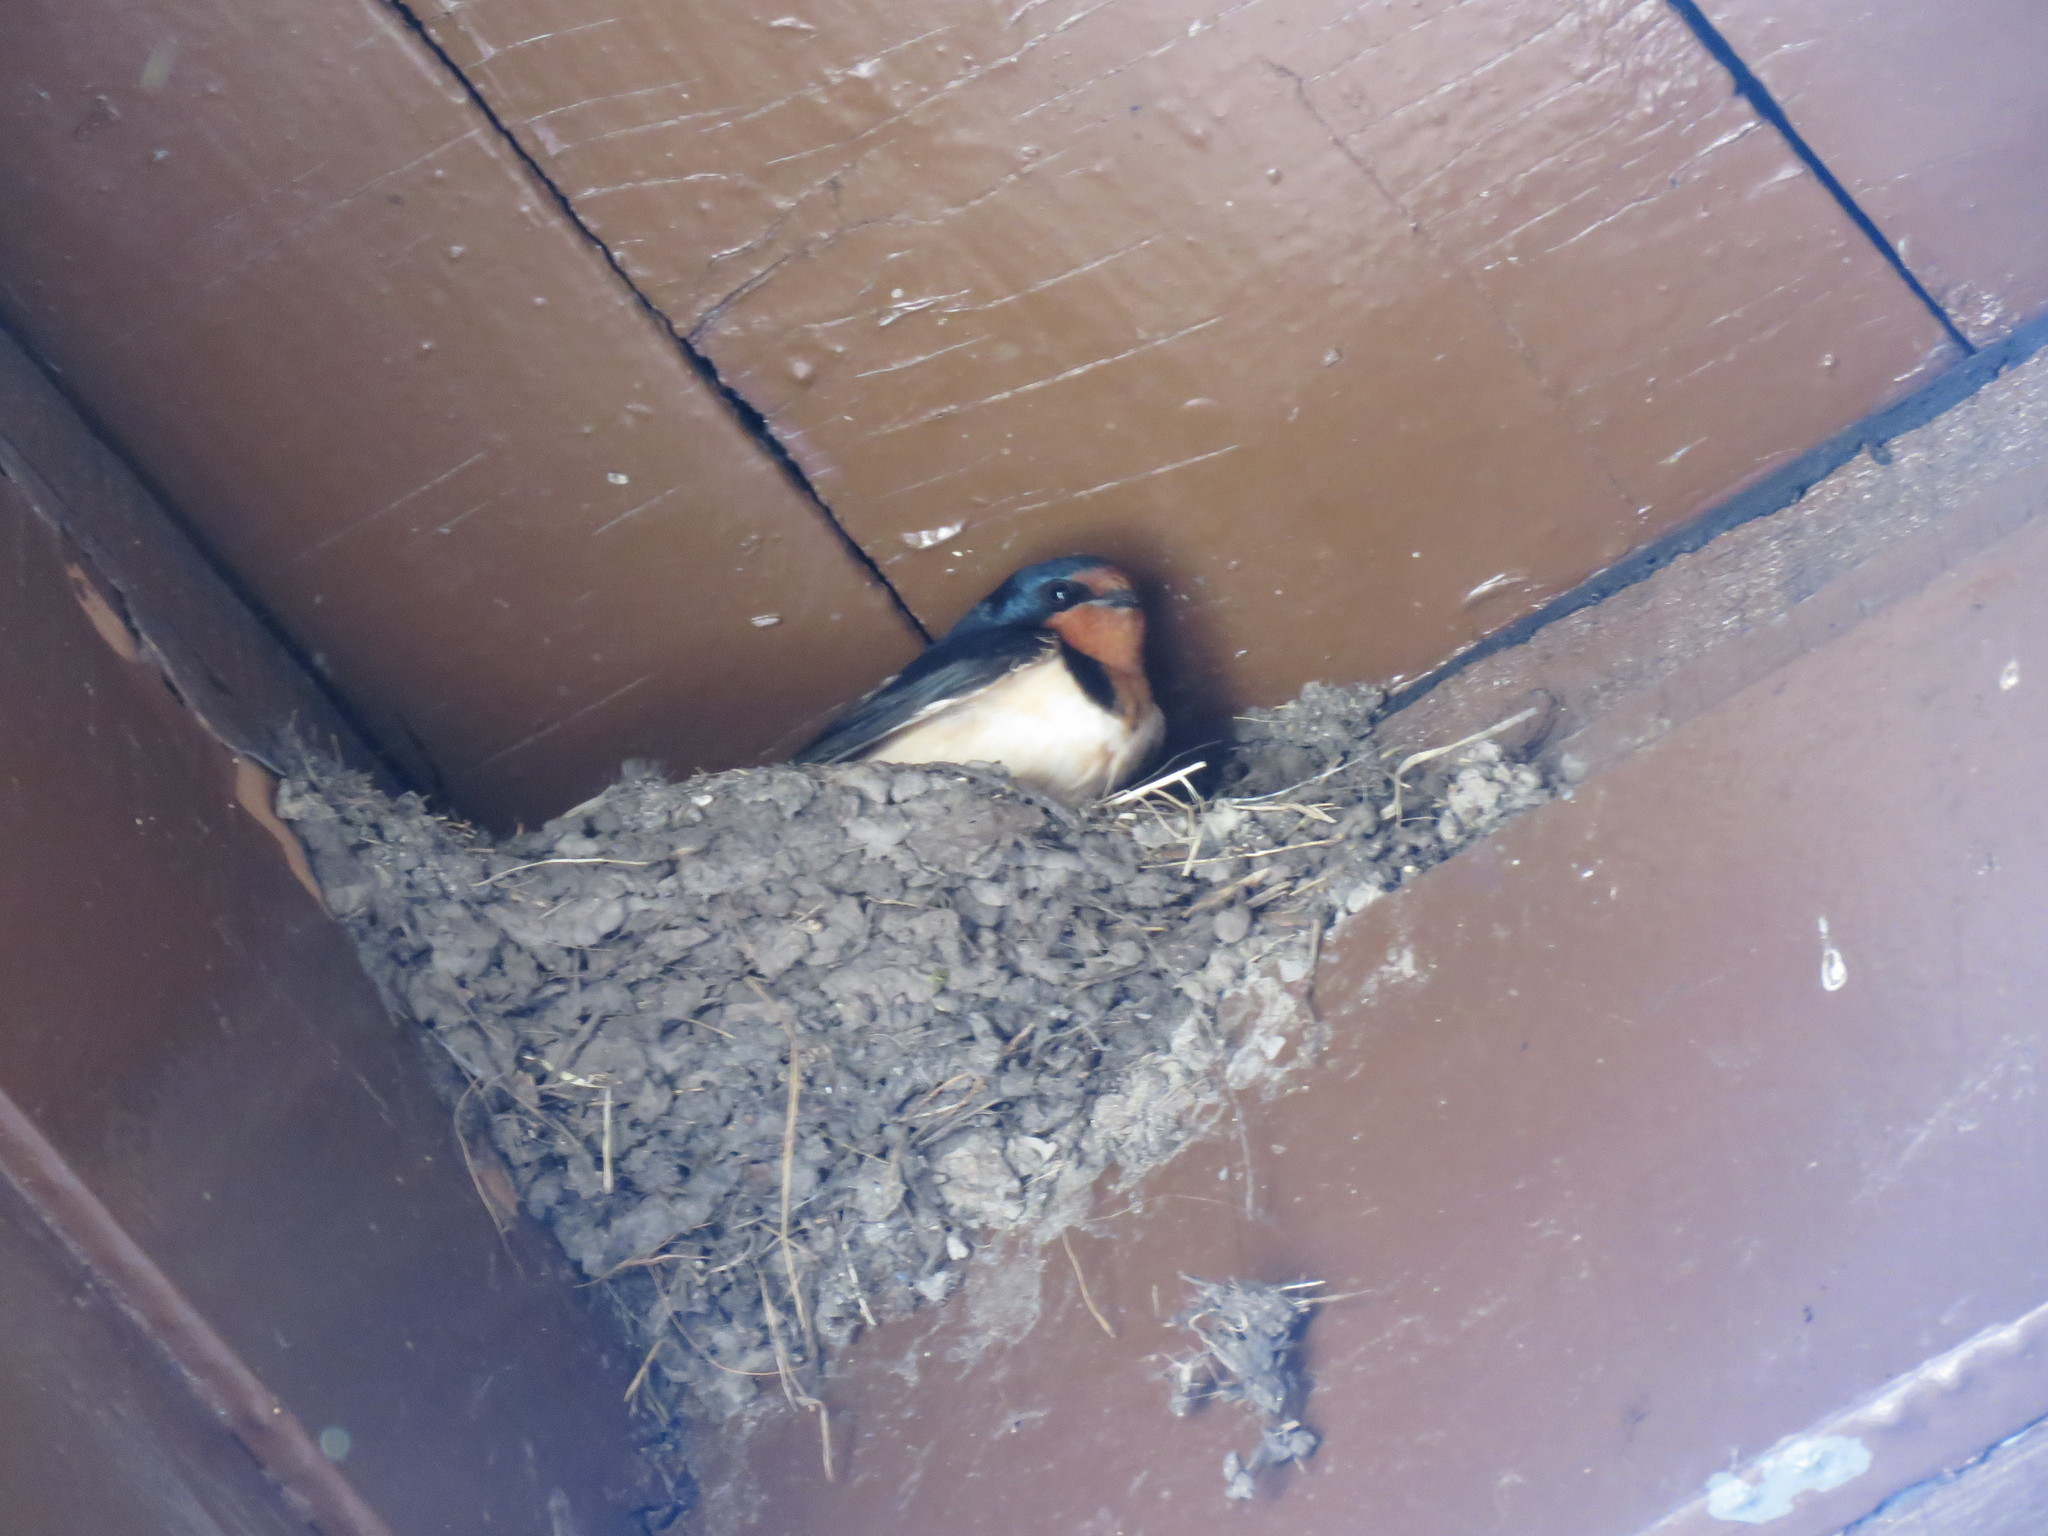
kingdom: Animalia
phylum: Chordata
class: Aves
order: Passeriformes
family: Hirundinidae
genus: Hirundo
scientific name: Hirundo rustica
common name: Barn swallow
